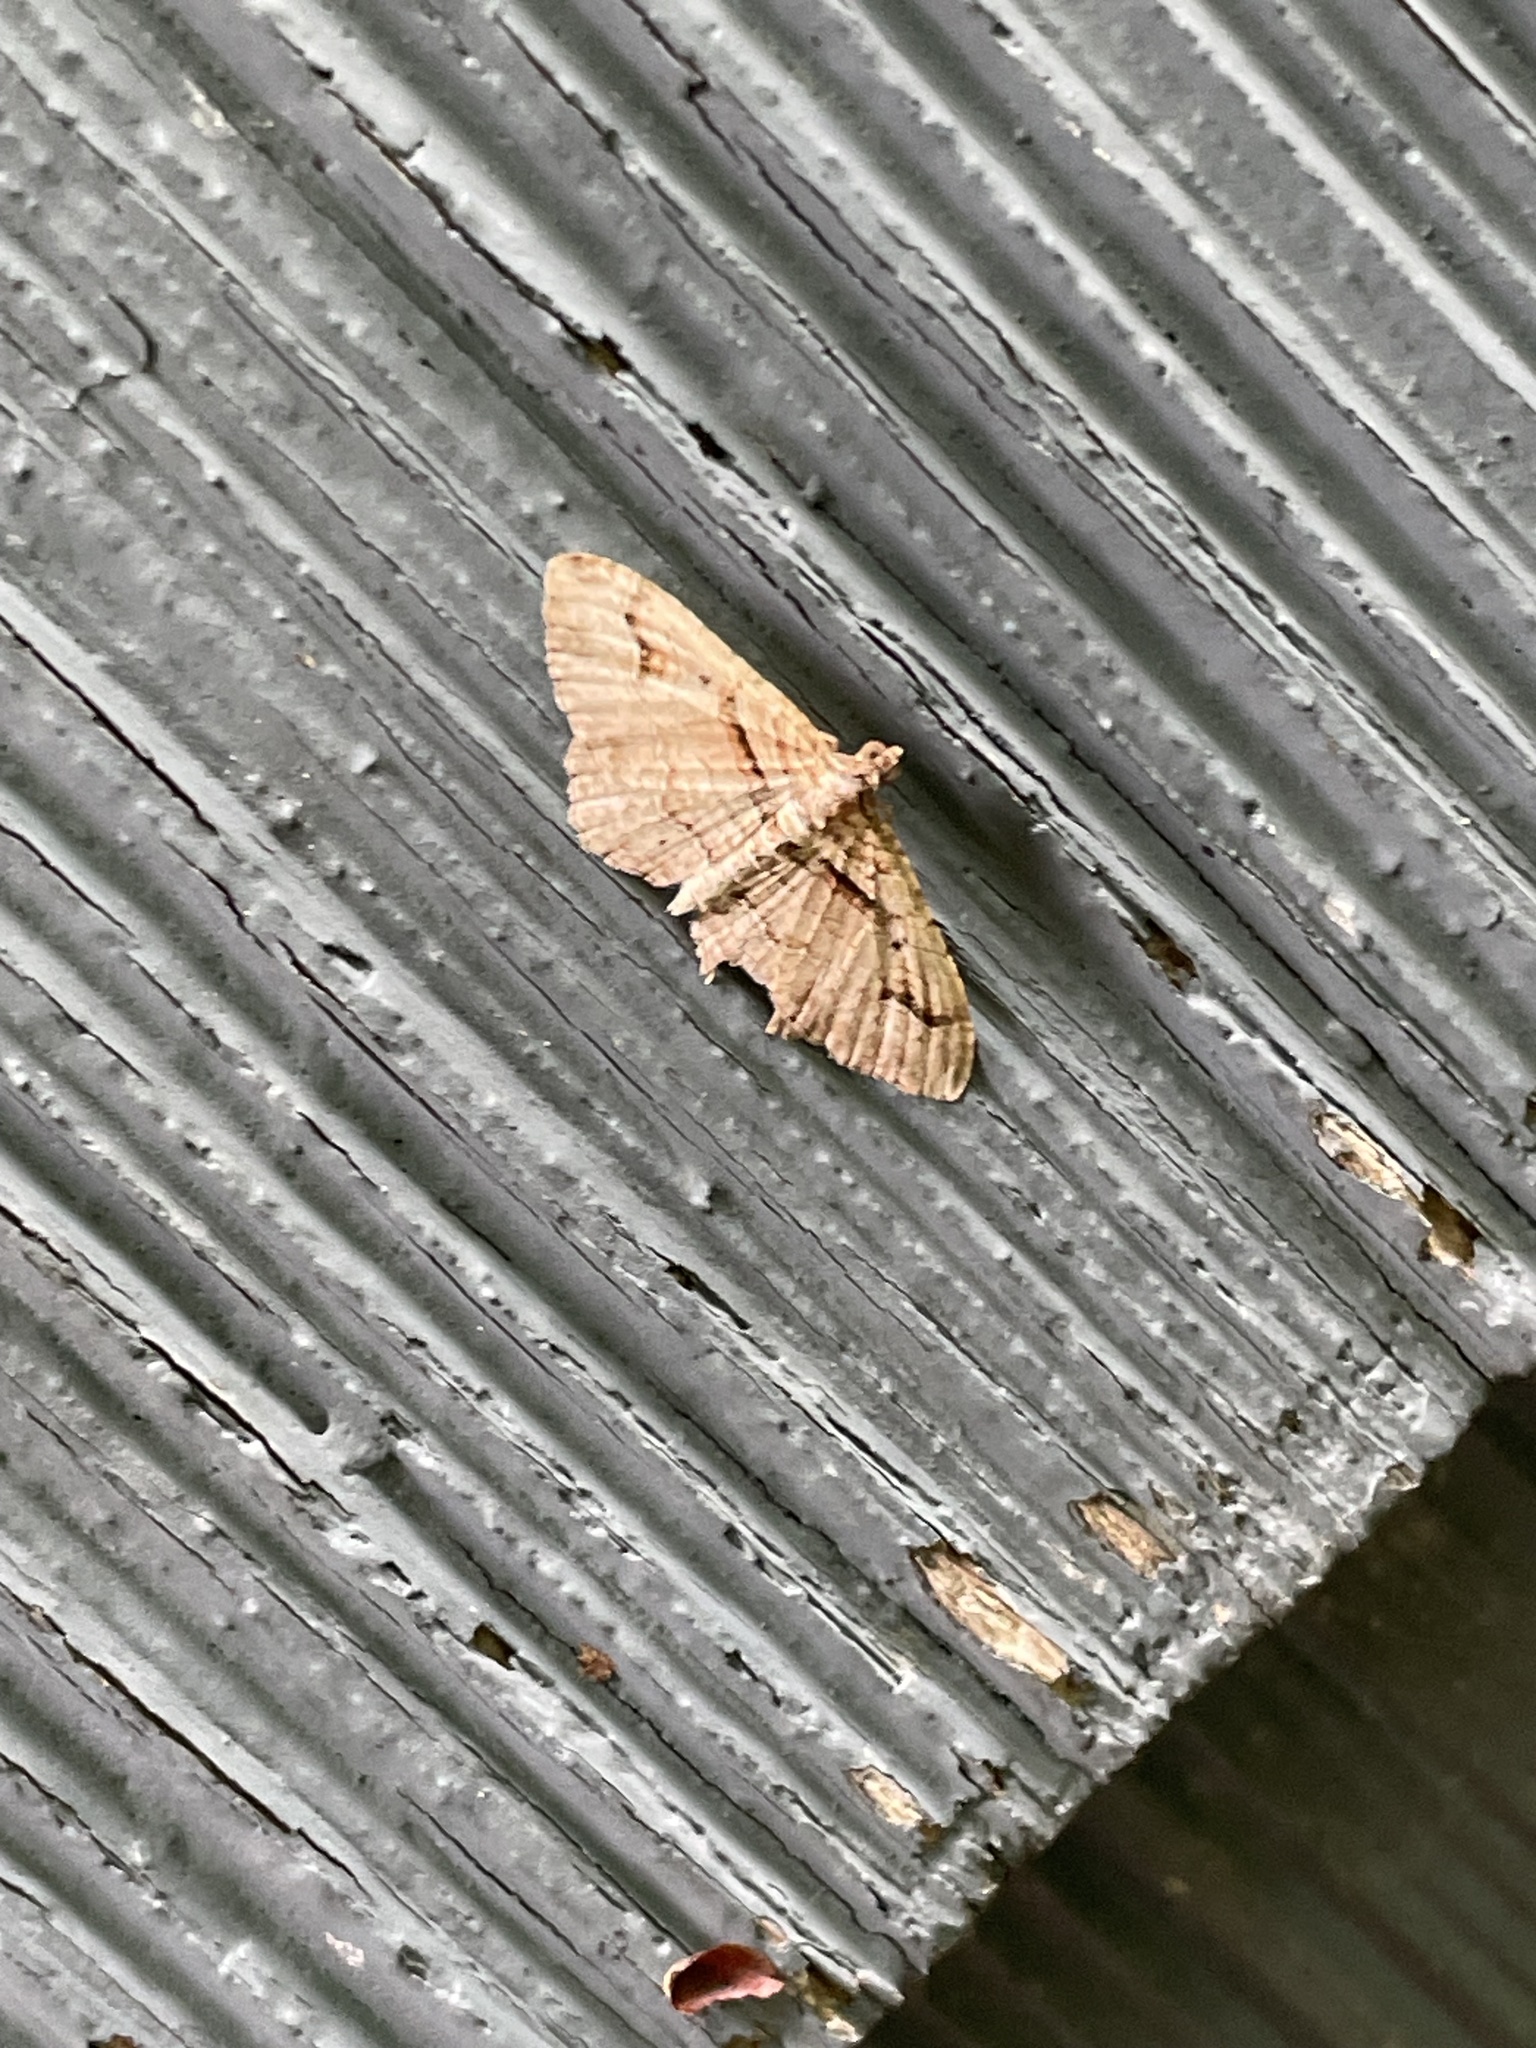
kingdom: Animalia
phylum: Arthropoda
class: Insecta
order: Lepidoptera
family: Geometridae
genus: Costaconvexa
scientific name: Costaconvexa centrostrigaria
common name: Bent-line carpet
